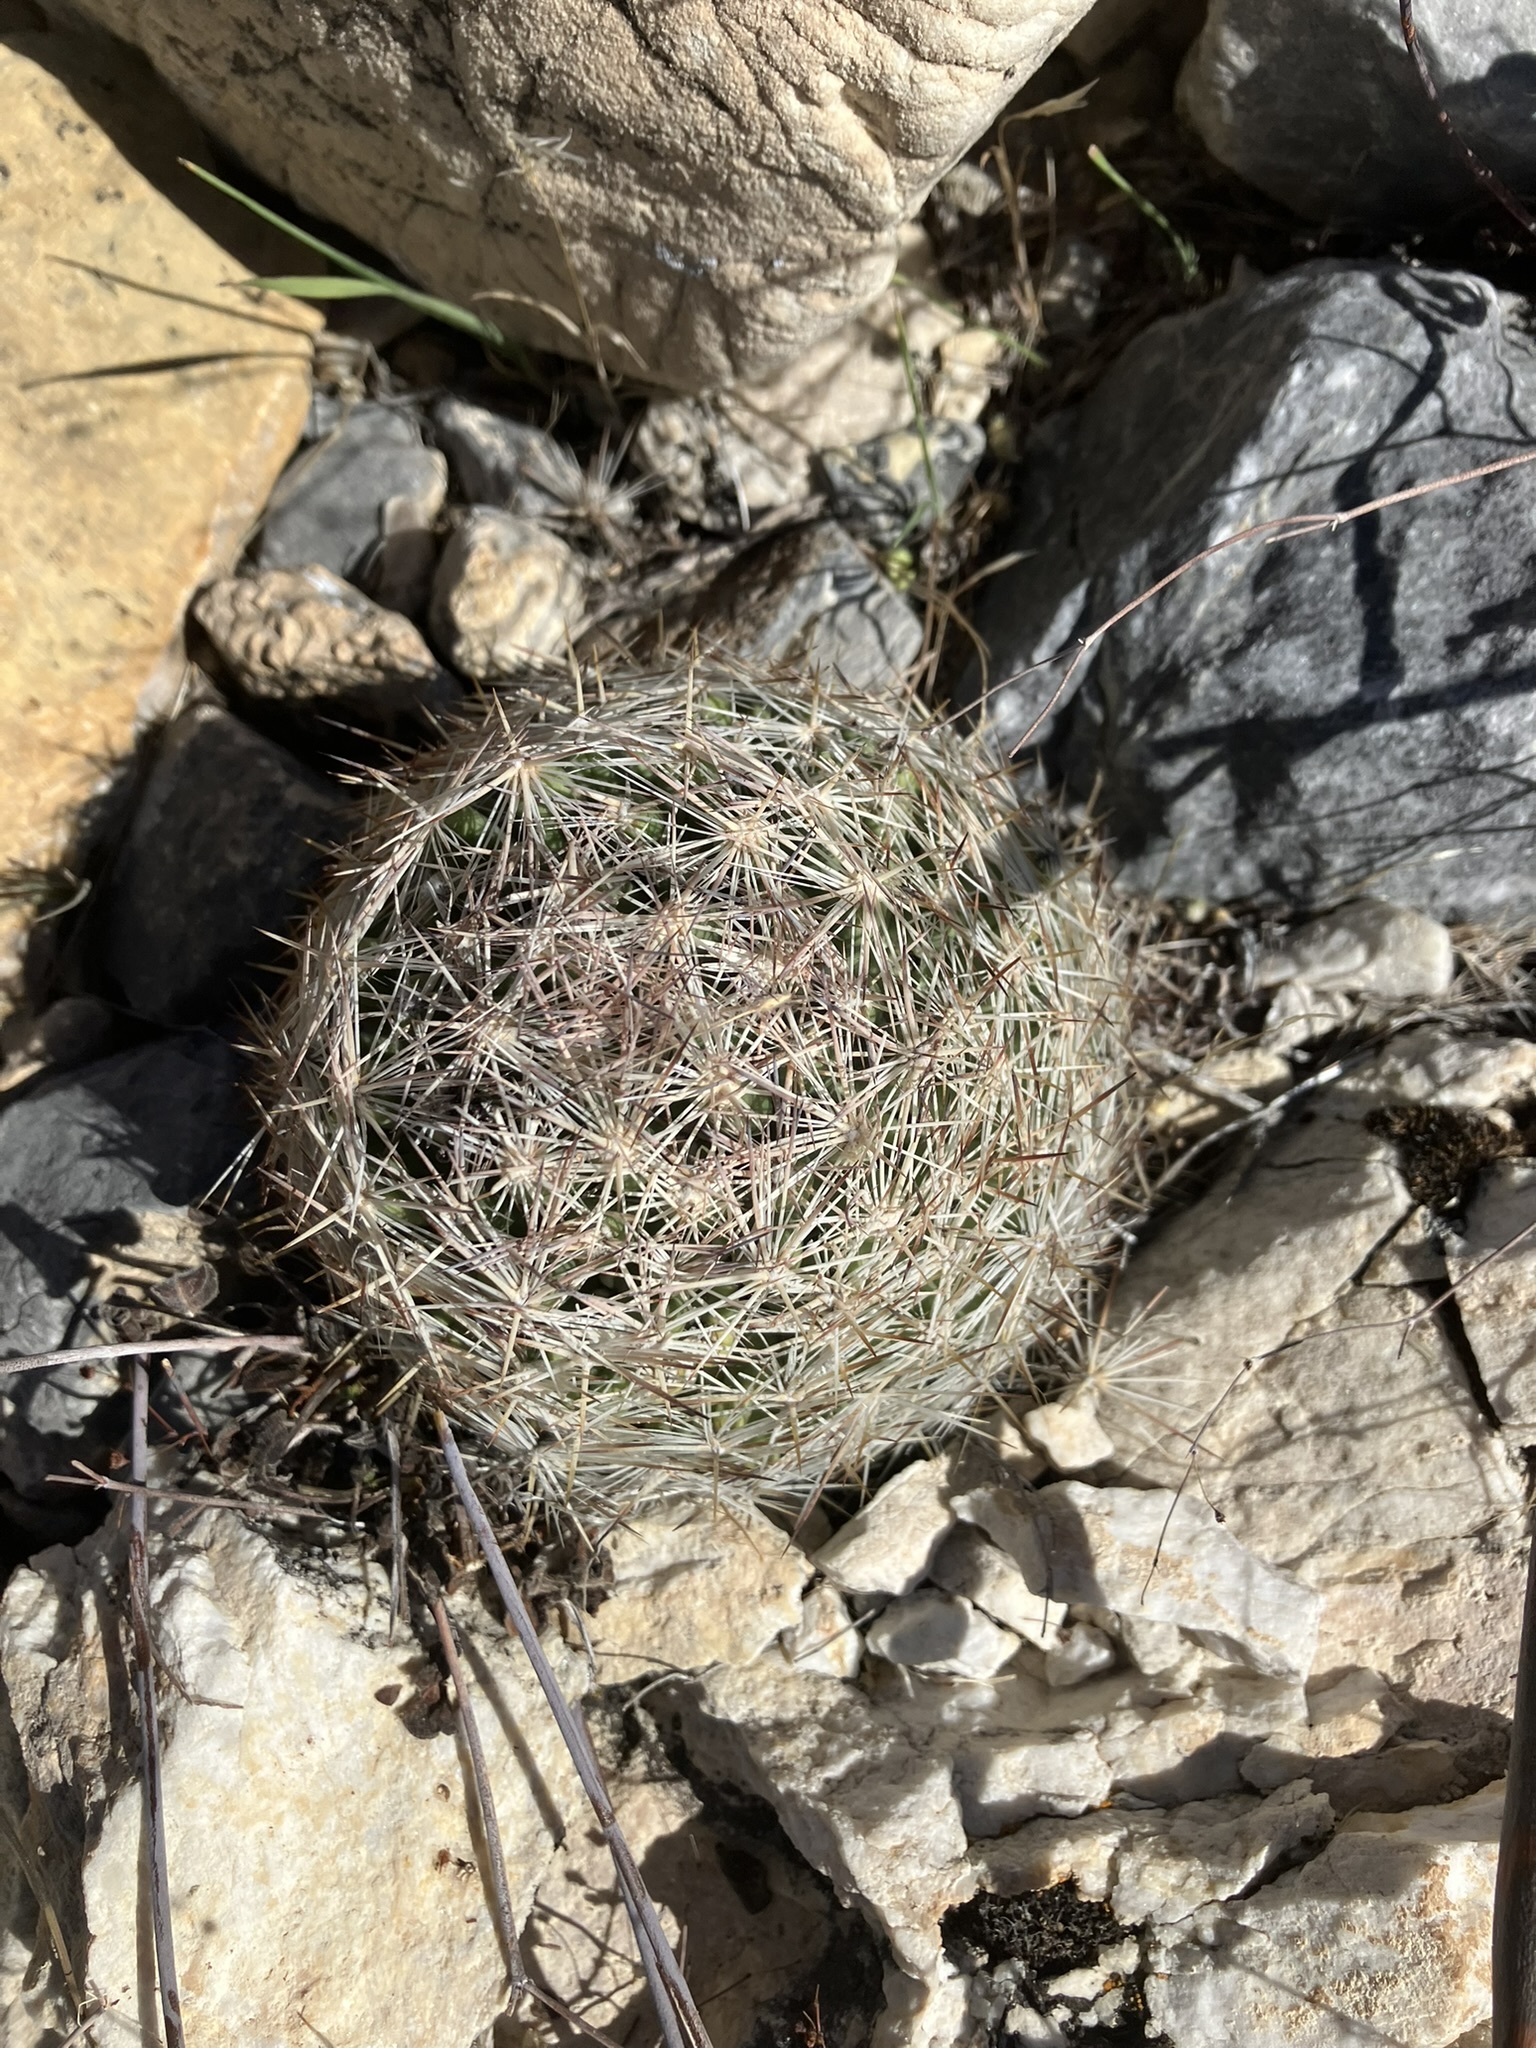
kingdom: Plantae
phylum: Tracheophyta
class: Magnoliopsida
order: Caryophyllales
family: Cactaceae
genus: Pelecyphora
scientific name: Pelecyphora vivipara
